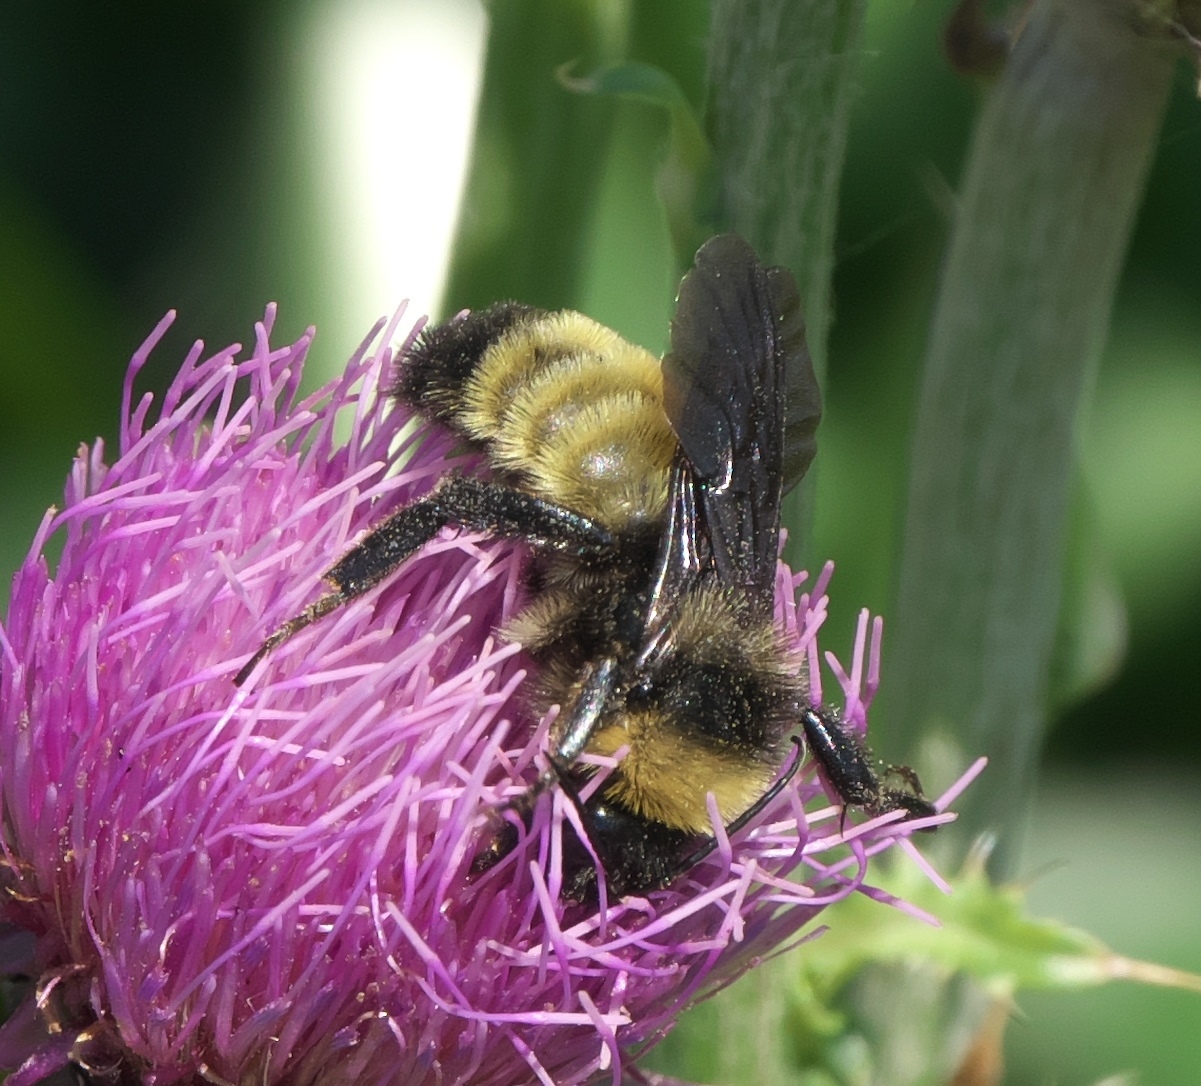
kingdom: Animalia
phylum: Arthropoda
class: Insecta
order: Hymenoptera
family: Apidae
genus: Bombus
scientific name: Bombus pensylvanicus
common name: Bumble bee
